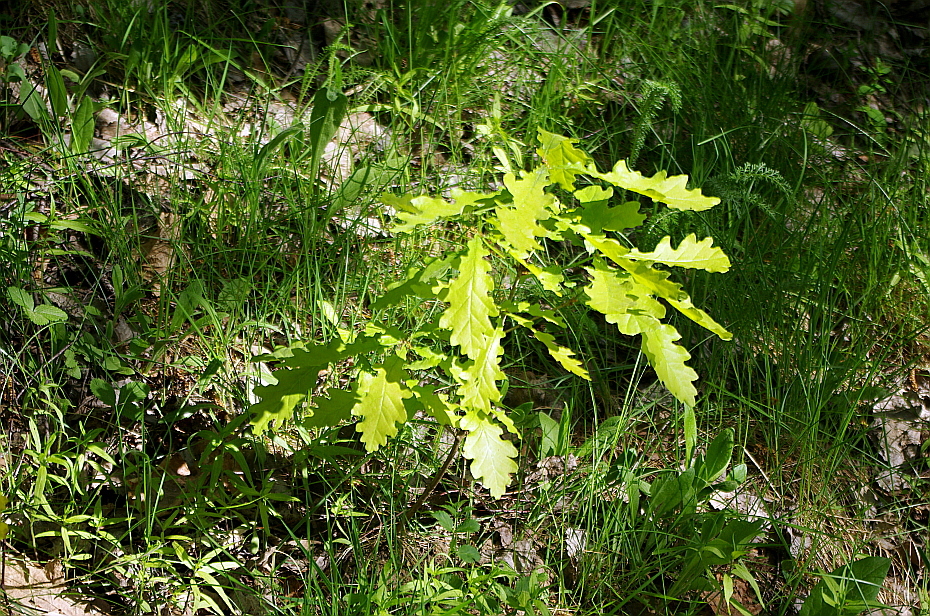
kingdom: Plantae
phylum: Tracheophyta
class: Magnoliopsida
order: Fagales
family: Fagaceae
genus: Quercus
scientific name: Quercus robur
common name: Pedunculate oak
